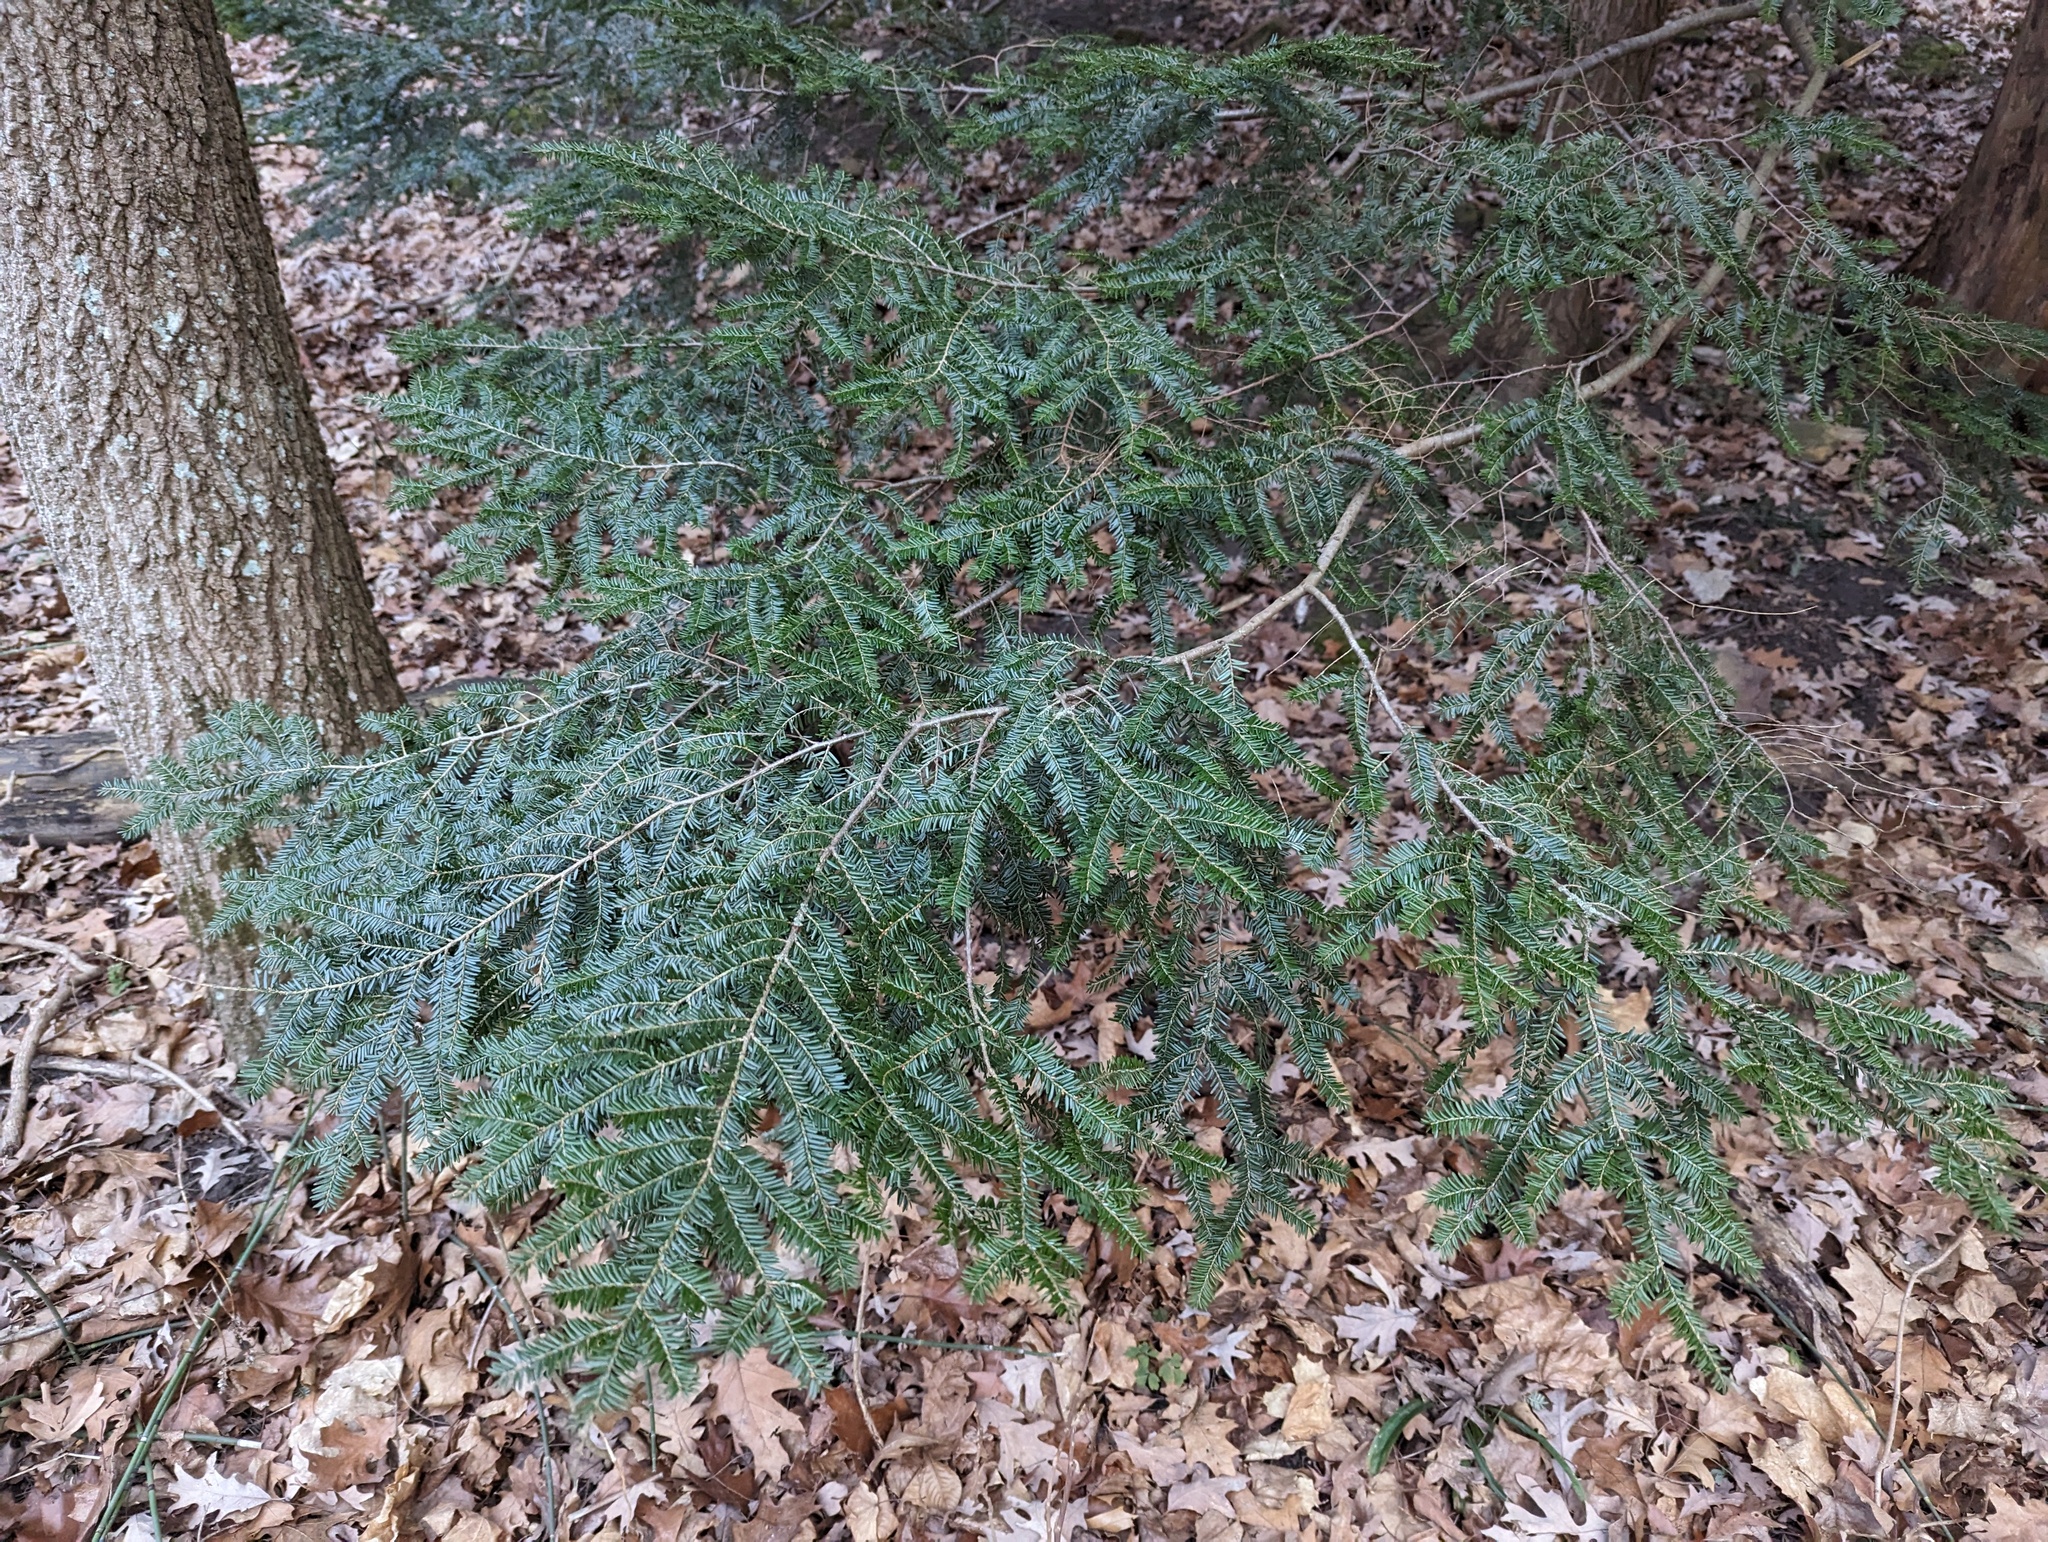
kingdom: Plantae
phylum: Tracheophyta
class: Pinopsida
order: Pinales
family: Pinaceae
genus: Tsuga
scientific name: Tsuga canadensis
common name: Eastern hemlock
